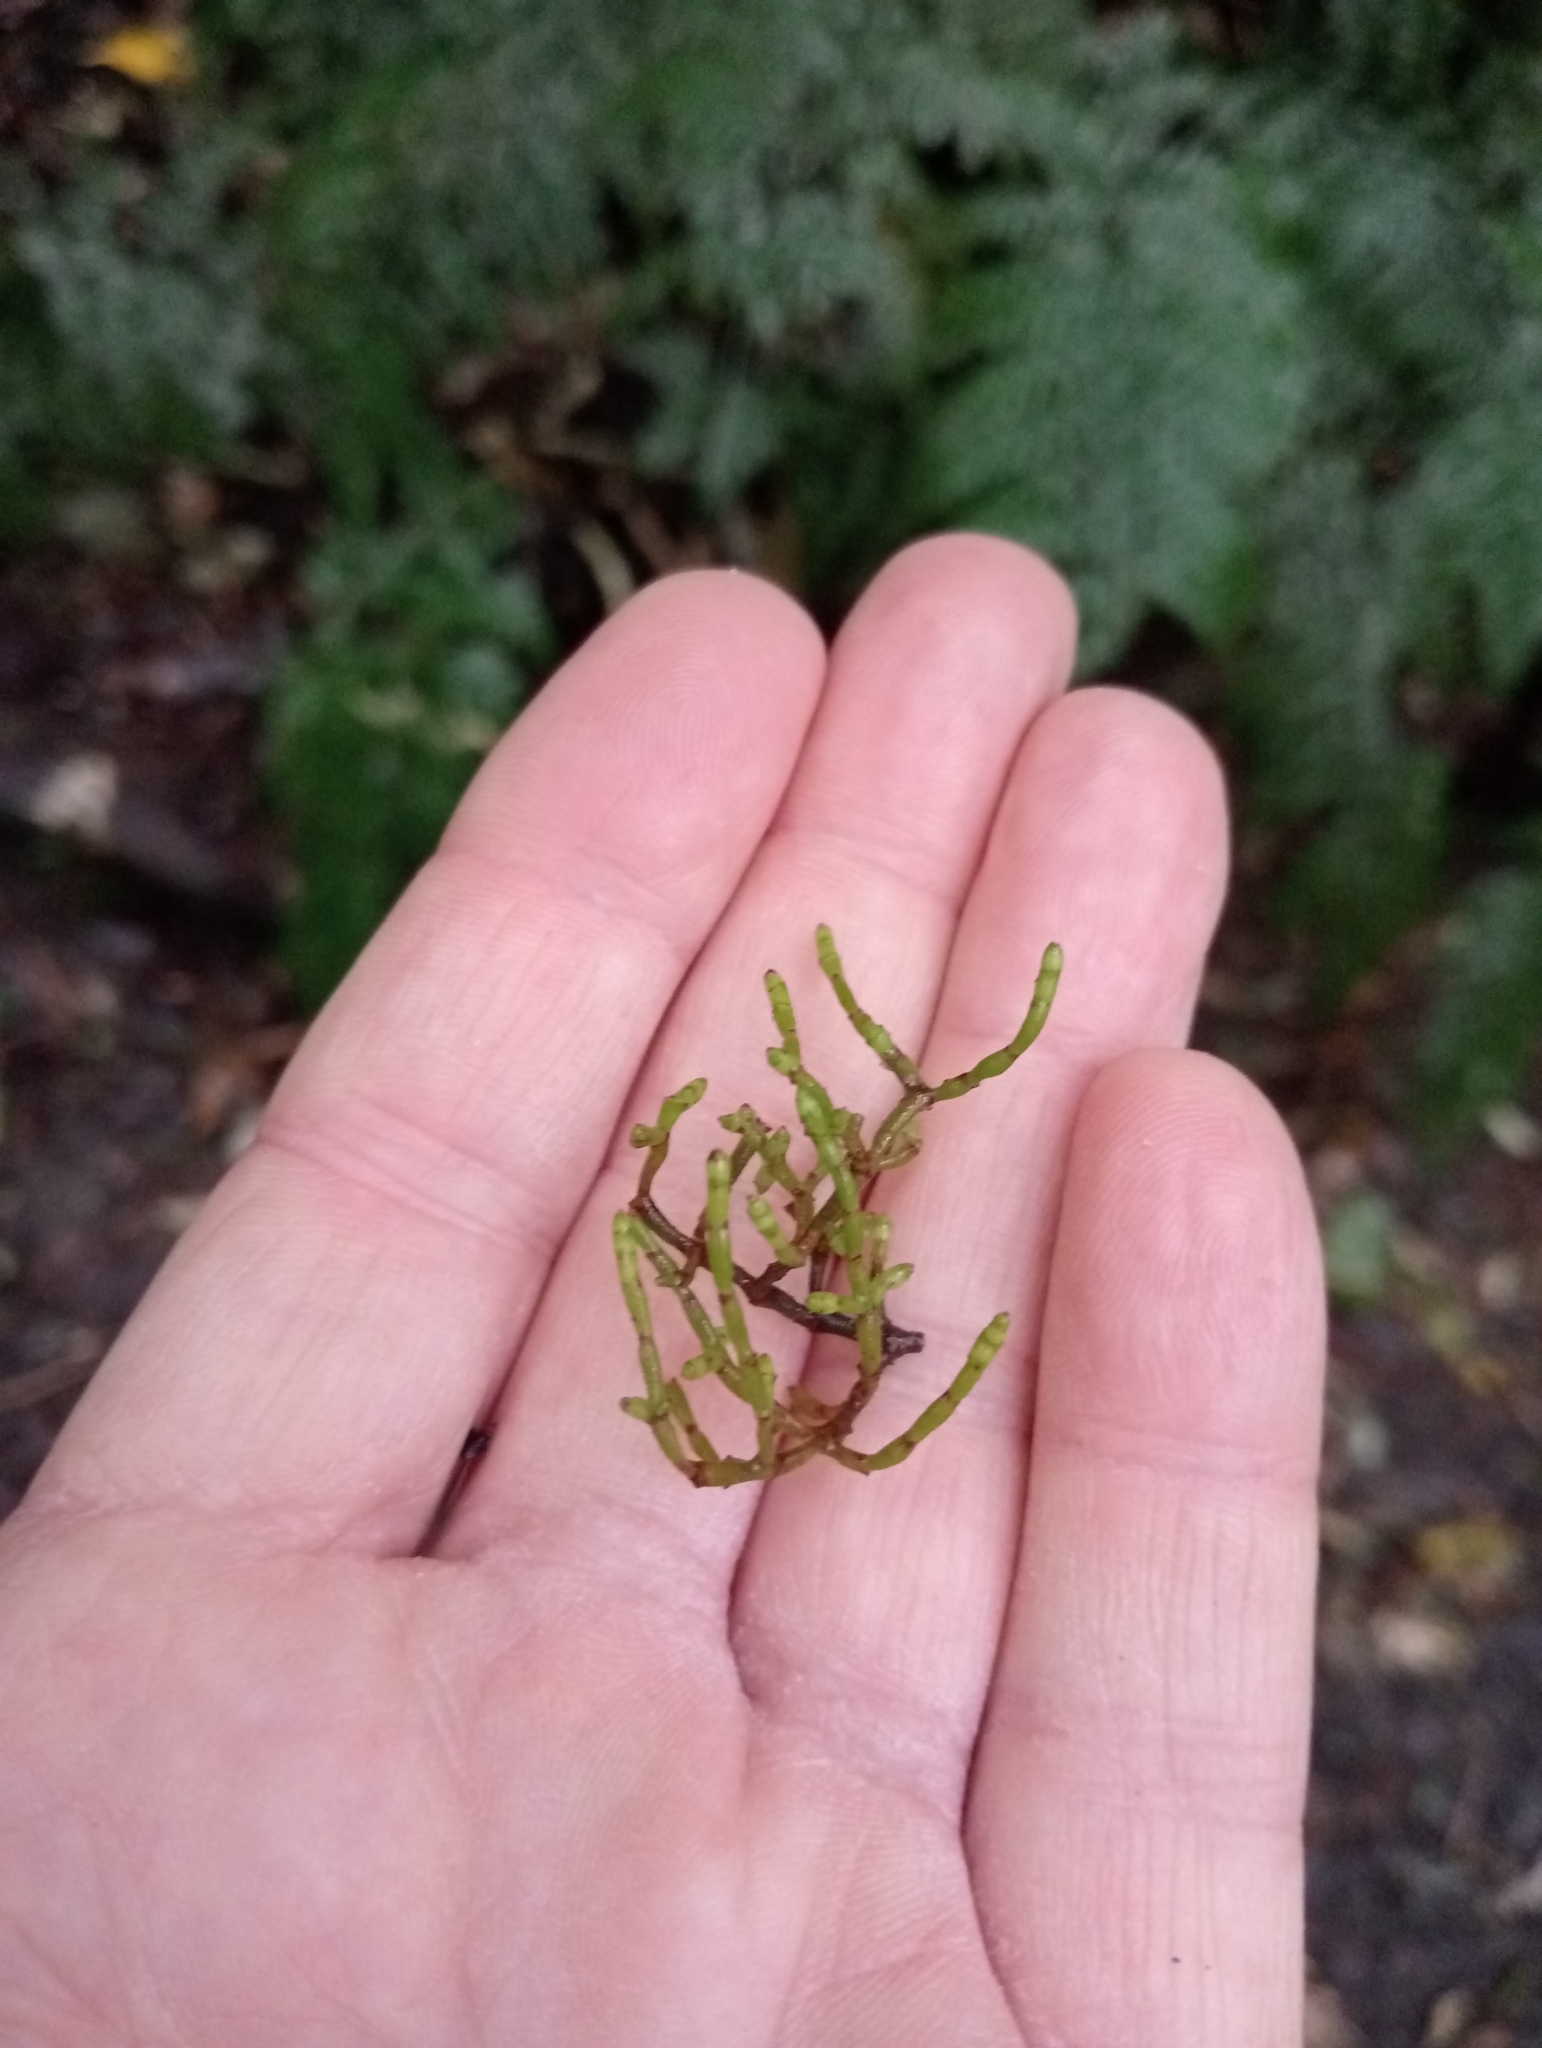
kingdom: Plantae
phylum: Tracheophyta
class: Magnoliopsida
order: Santalales
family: Viscaceae
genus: Korthalsella
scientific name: Korthalsella salicornioides
